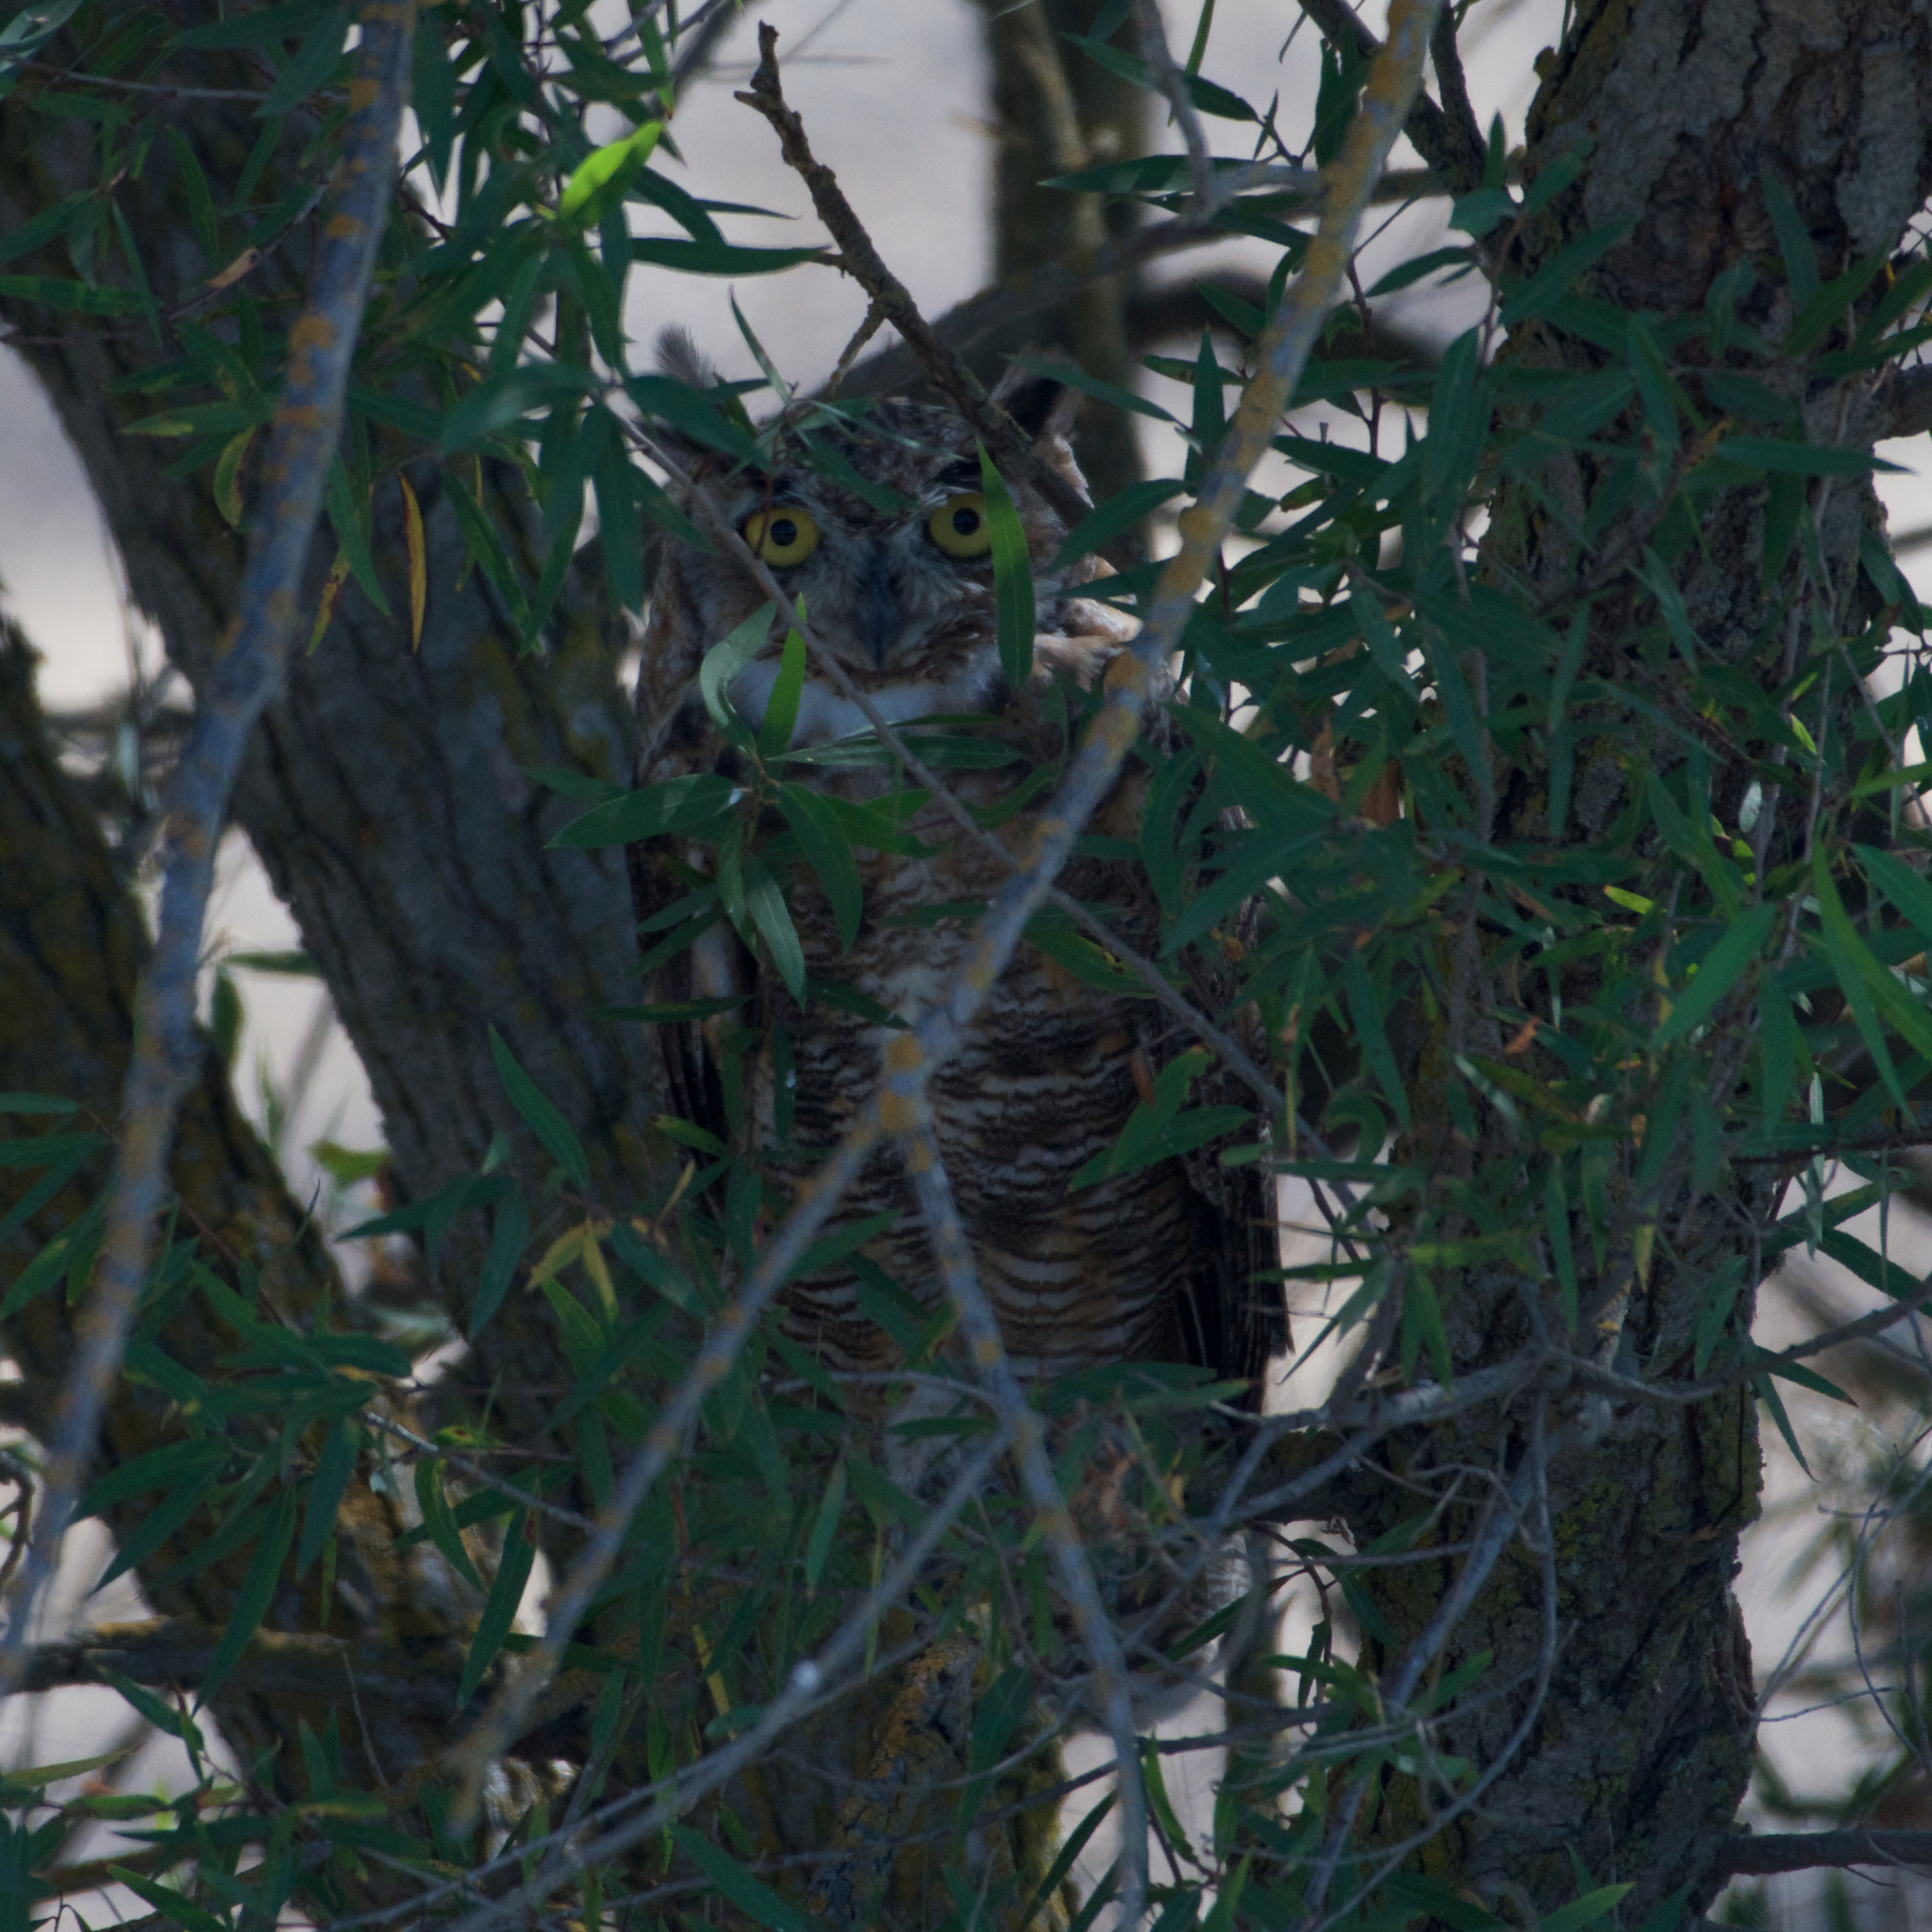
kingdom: Animalia
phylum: Chordata
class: Aves
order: Strigiformes
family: Strigidae
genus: Bubo
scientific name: Bubo virginianus
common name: Great horned owl
